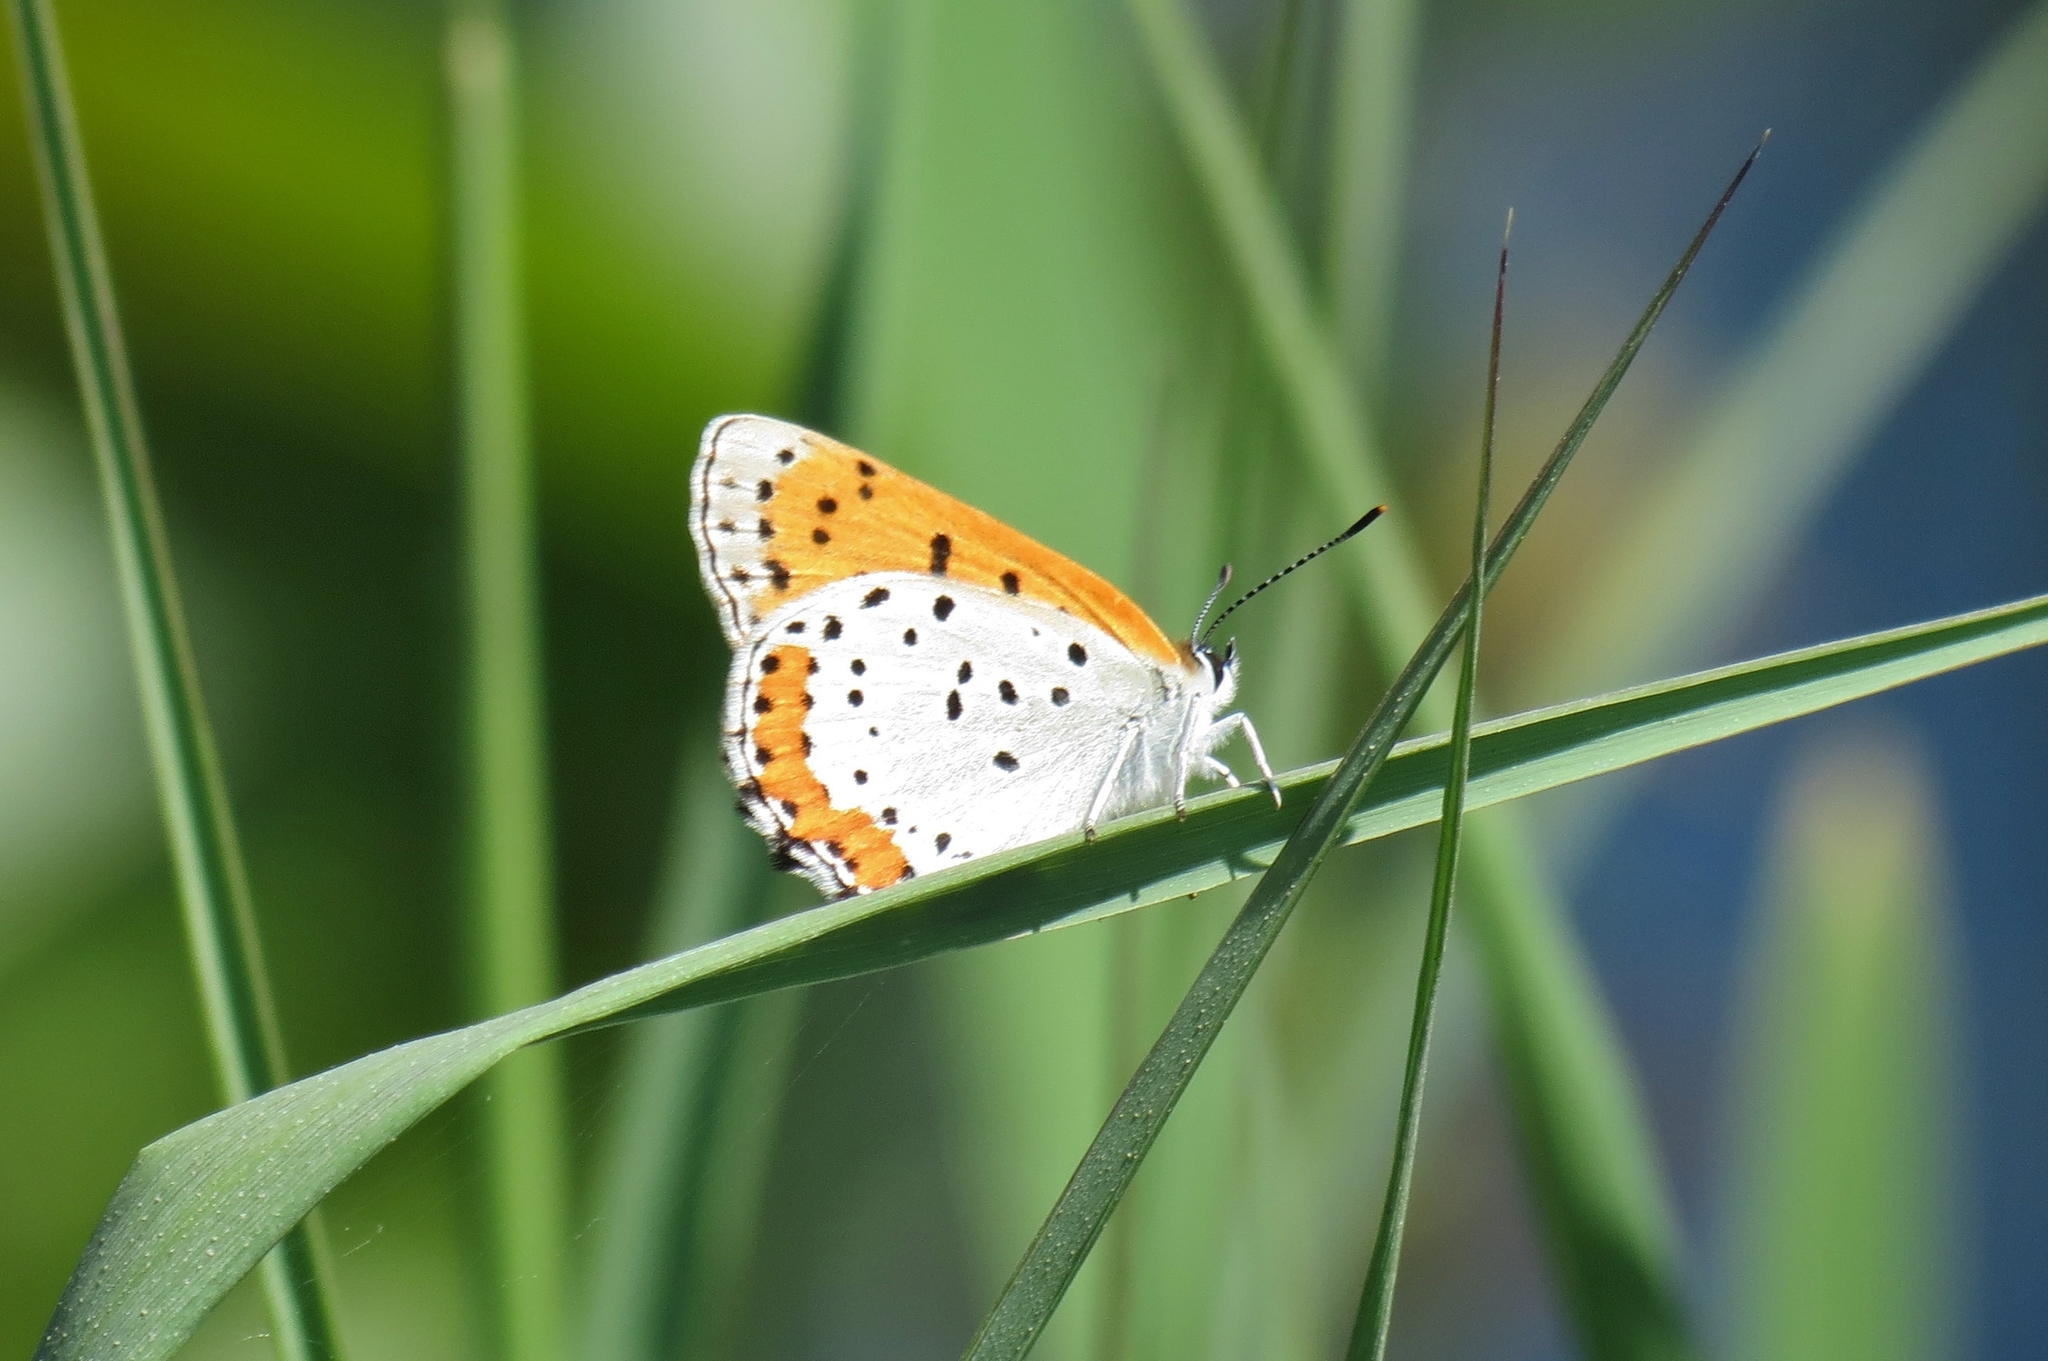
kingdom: Animalia
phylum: Arthropoda
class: Insecta
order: Lepidoptera
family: Lycaenidae
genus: Tharsalea
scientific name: Tharsalea hyllus
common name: Bronze copper
